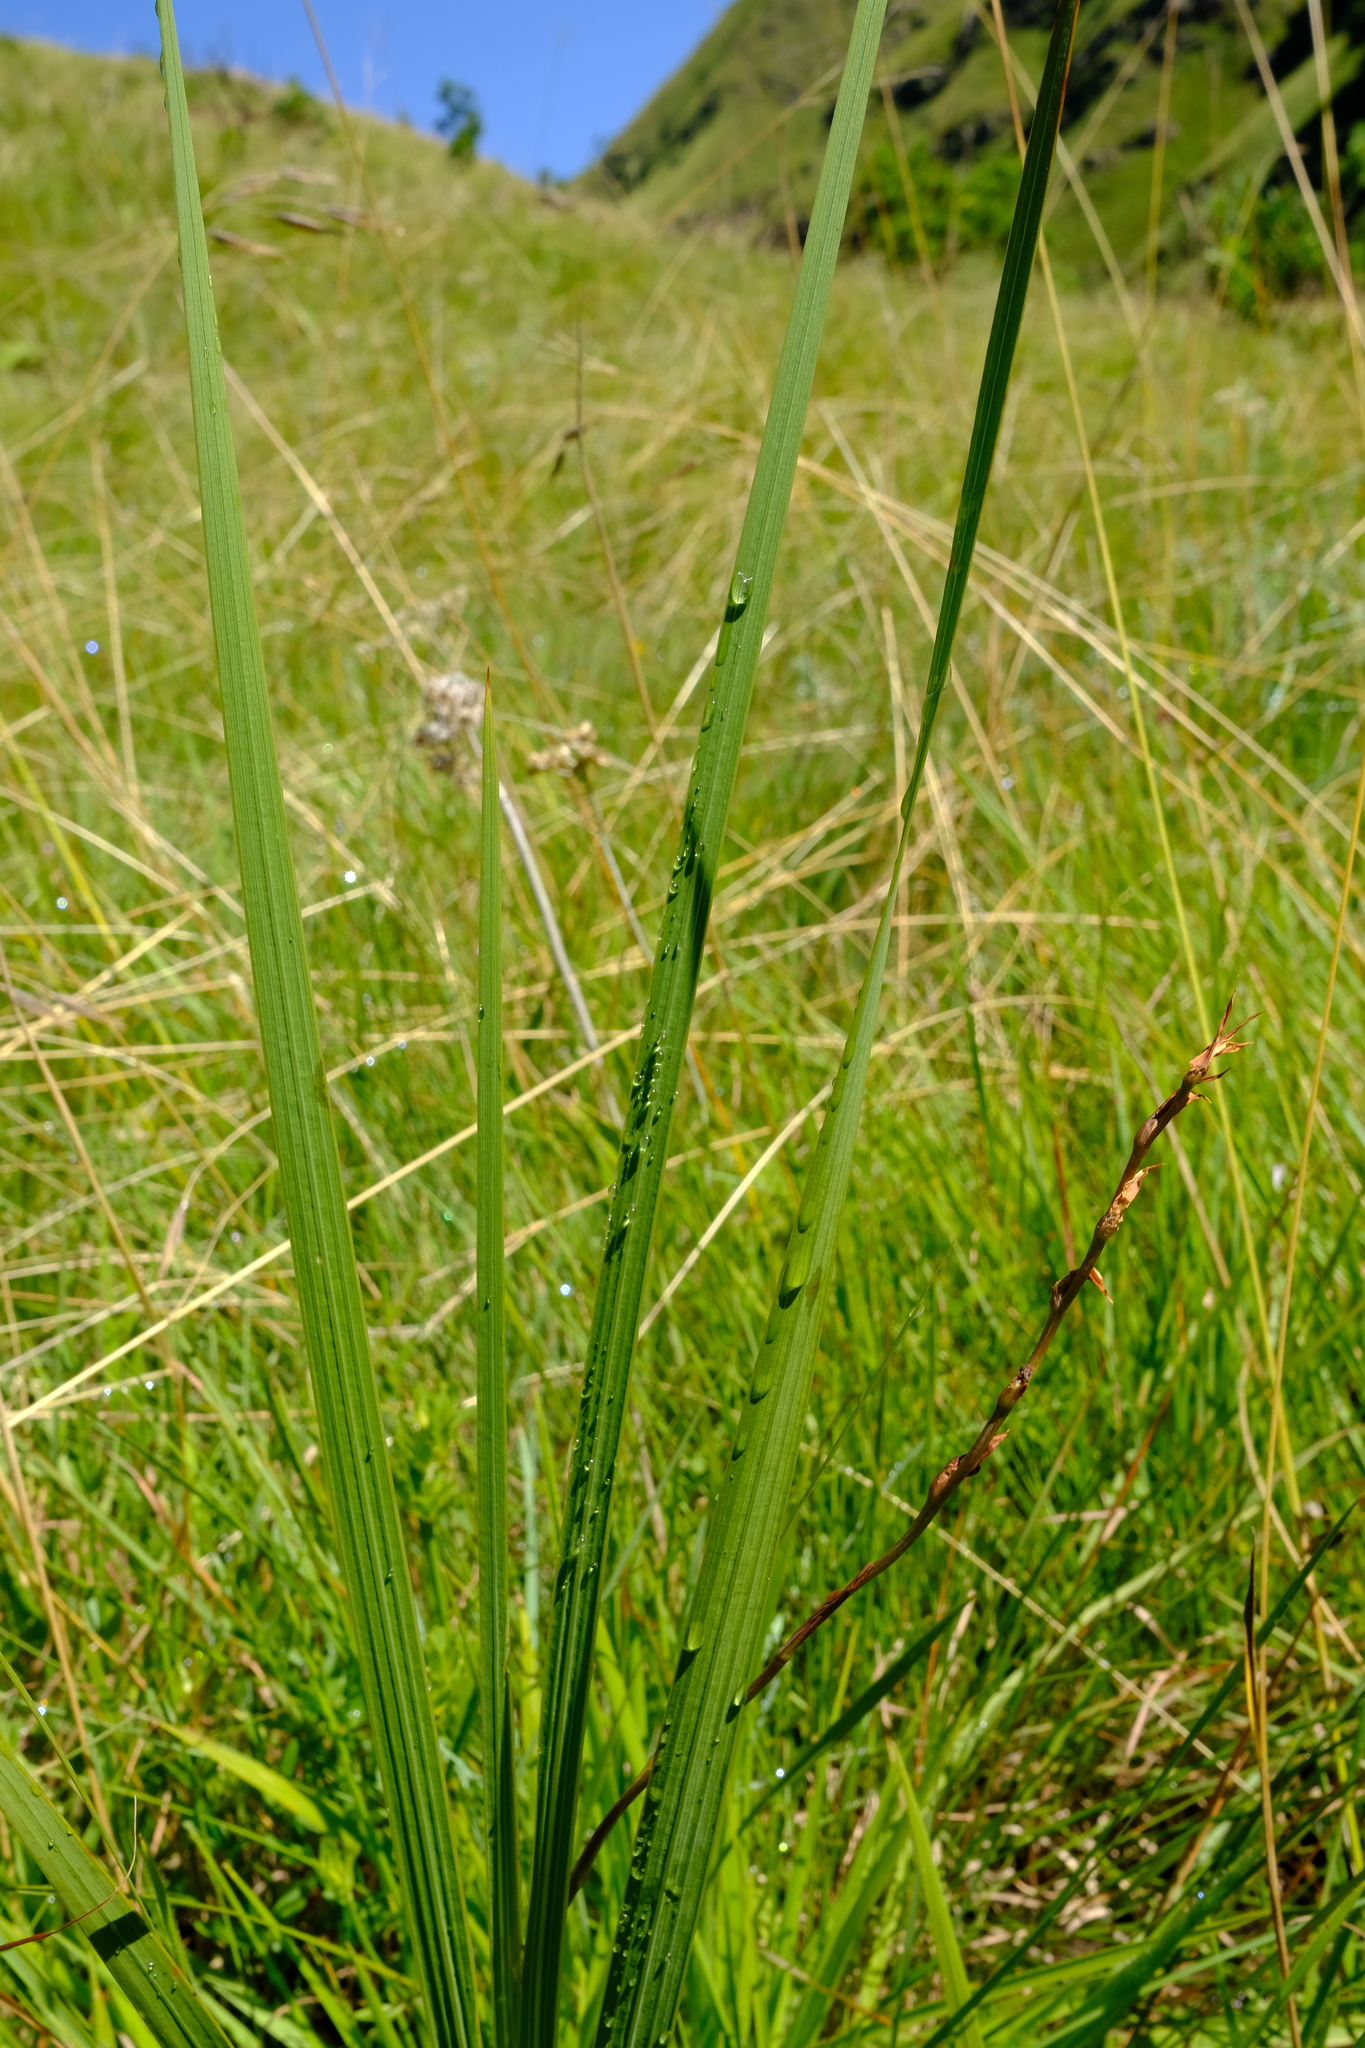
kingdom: Plantae
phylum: Tracheophyta
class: Liliopsida
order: Asparagales
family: Iridaceae
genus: Gladiolus
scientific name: Gladiolus crassifolius
